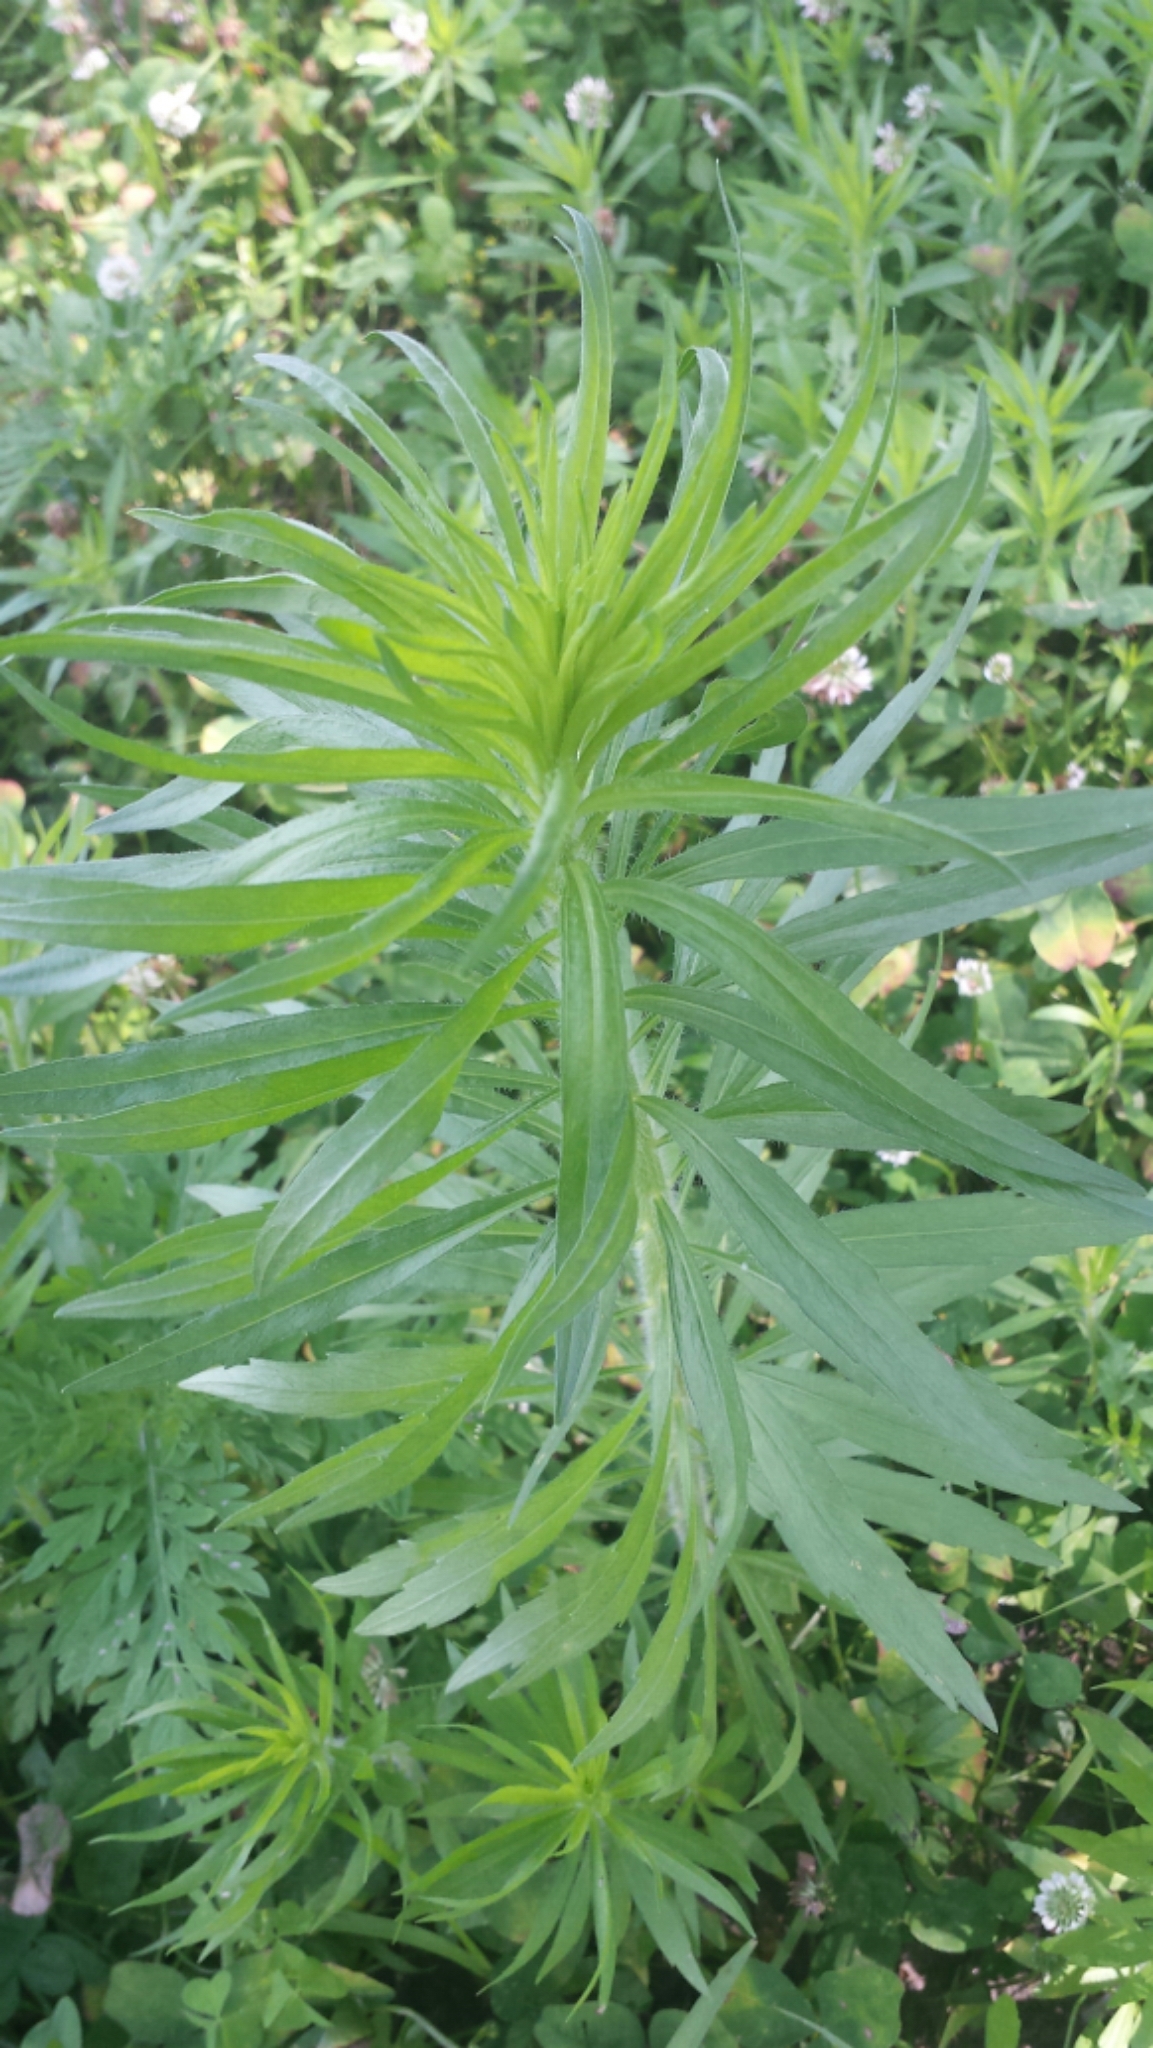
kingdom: Plantae
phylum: Tracheophyta
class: Magnoliopsida
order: Asterales
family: Asteraceae
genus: Erigeron
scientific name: Erigeron canadensis
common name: Canadian fleabane
